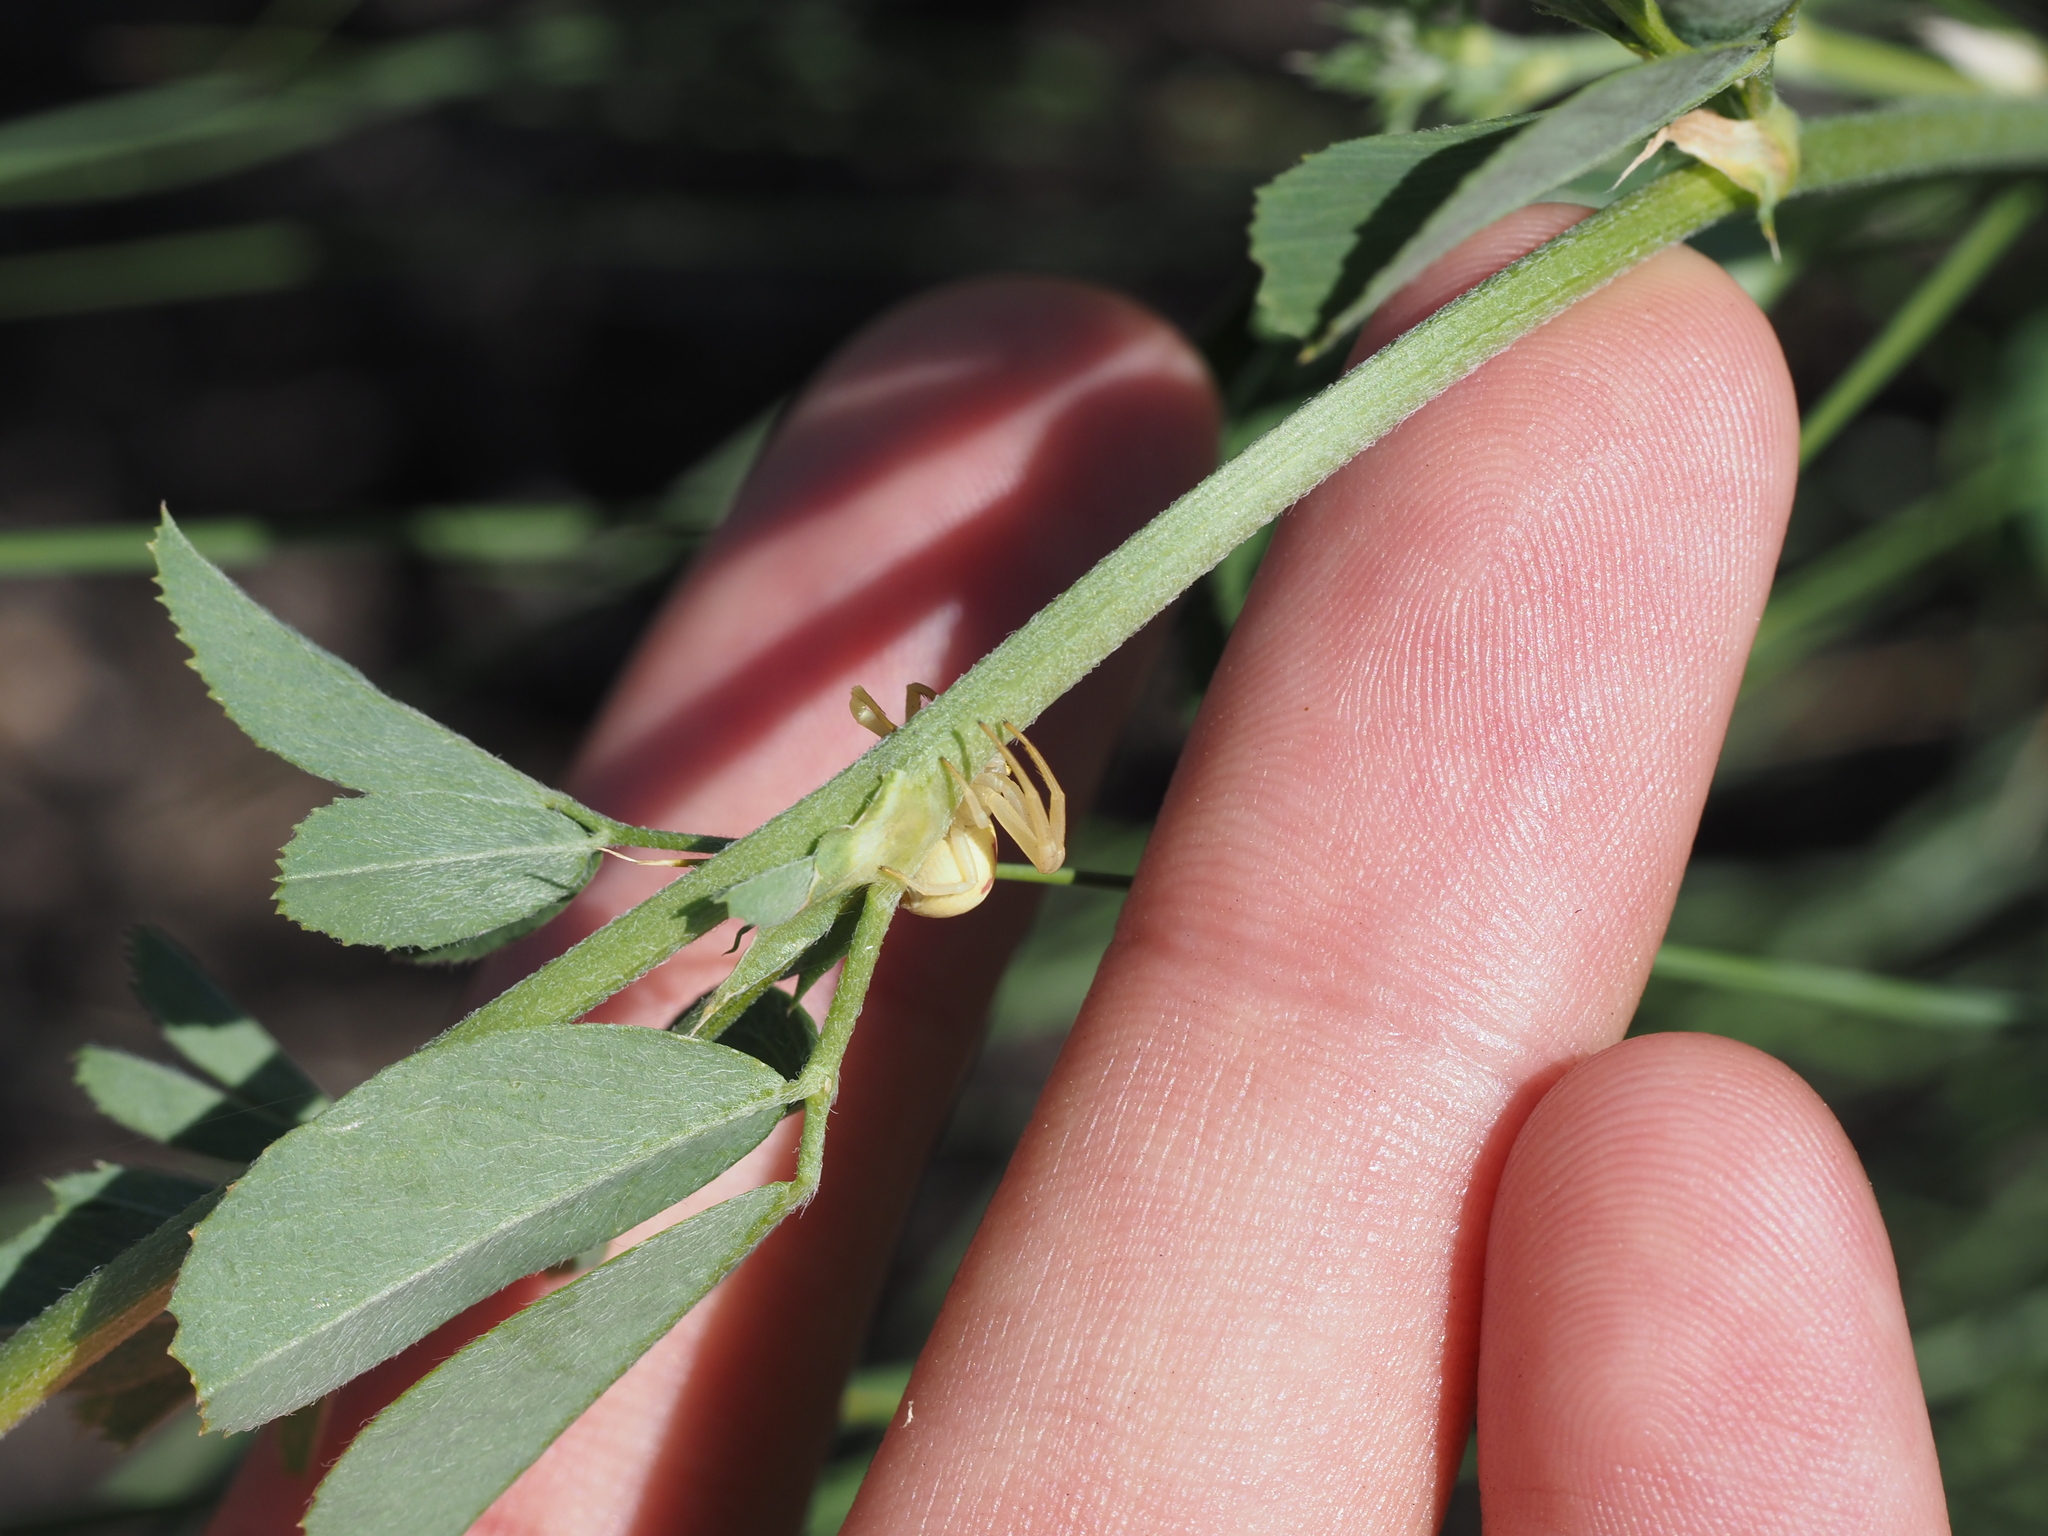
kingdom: Animalia
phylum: Arthropoda
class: Arachnida
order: Araneae
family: Thomisidae
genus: Misumena
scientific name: Misumena vatia
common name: Goldenrod crab spider
